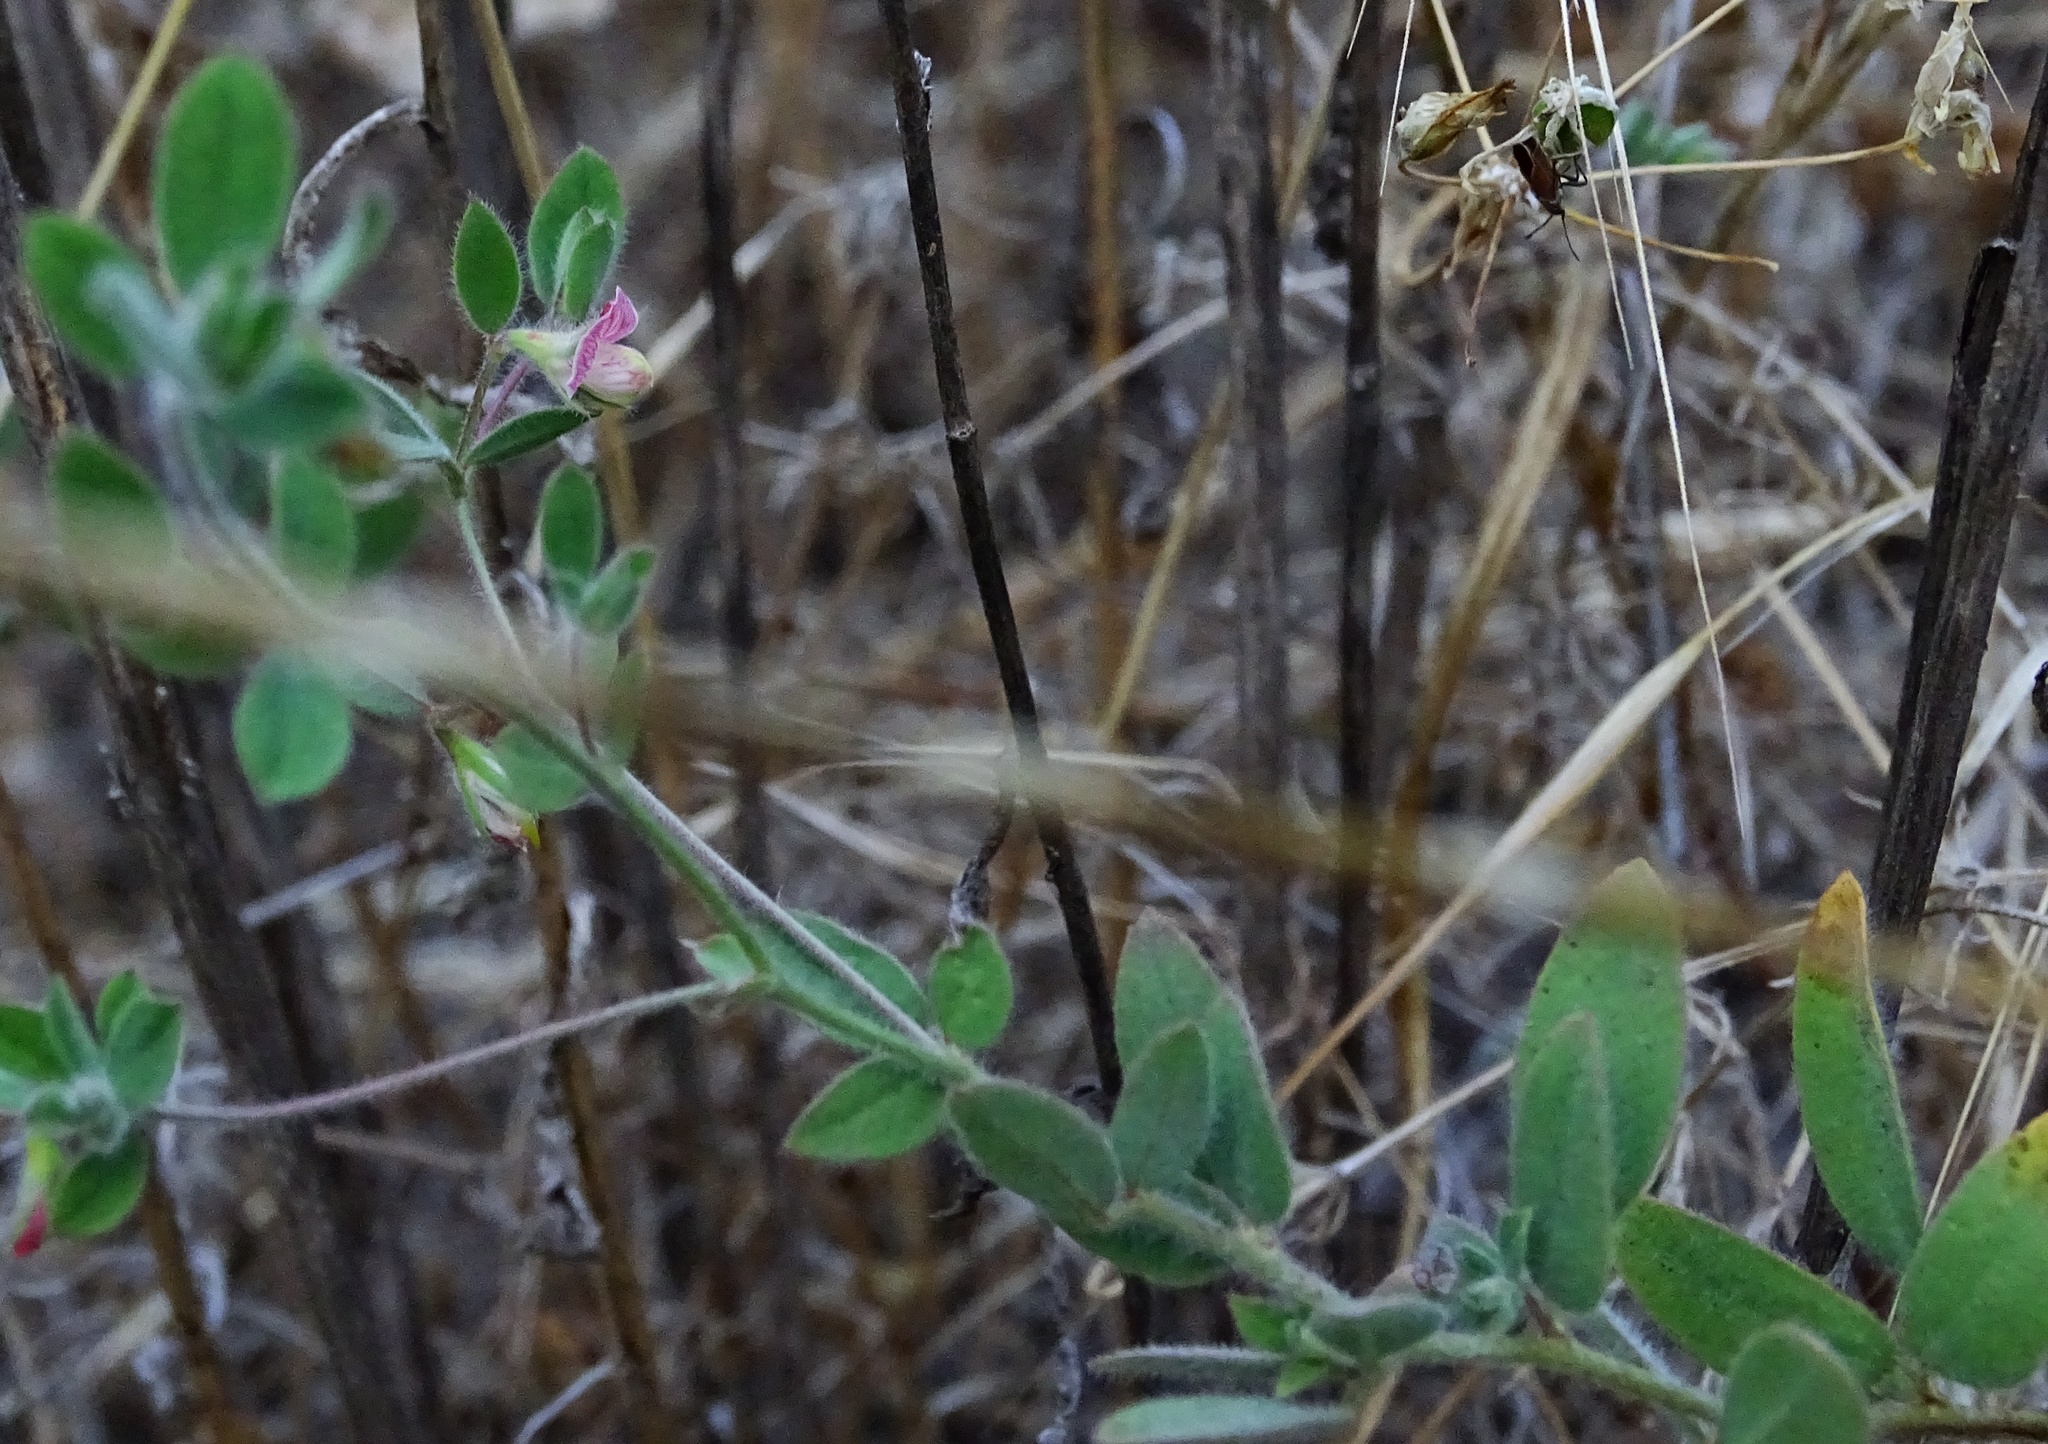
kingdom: Plantae
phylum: Tracheophyta
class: Magnoliopsida
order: Fabales
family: Fabaceae
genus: Acmispon
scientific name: Acmispon americanus
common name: American bird's-foot trefoil
